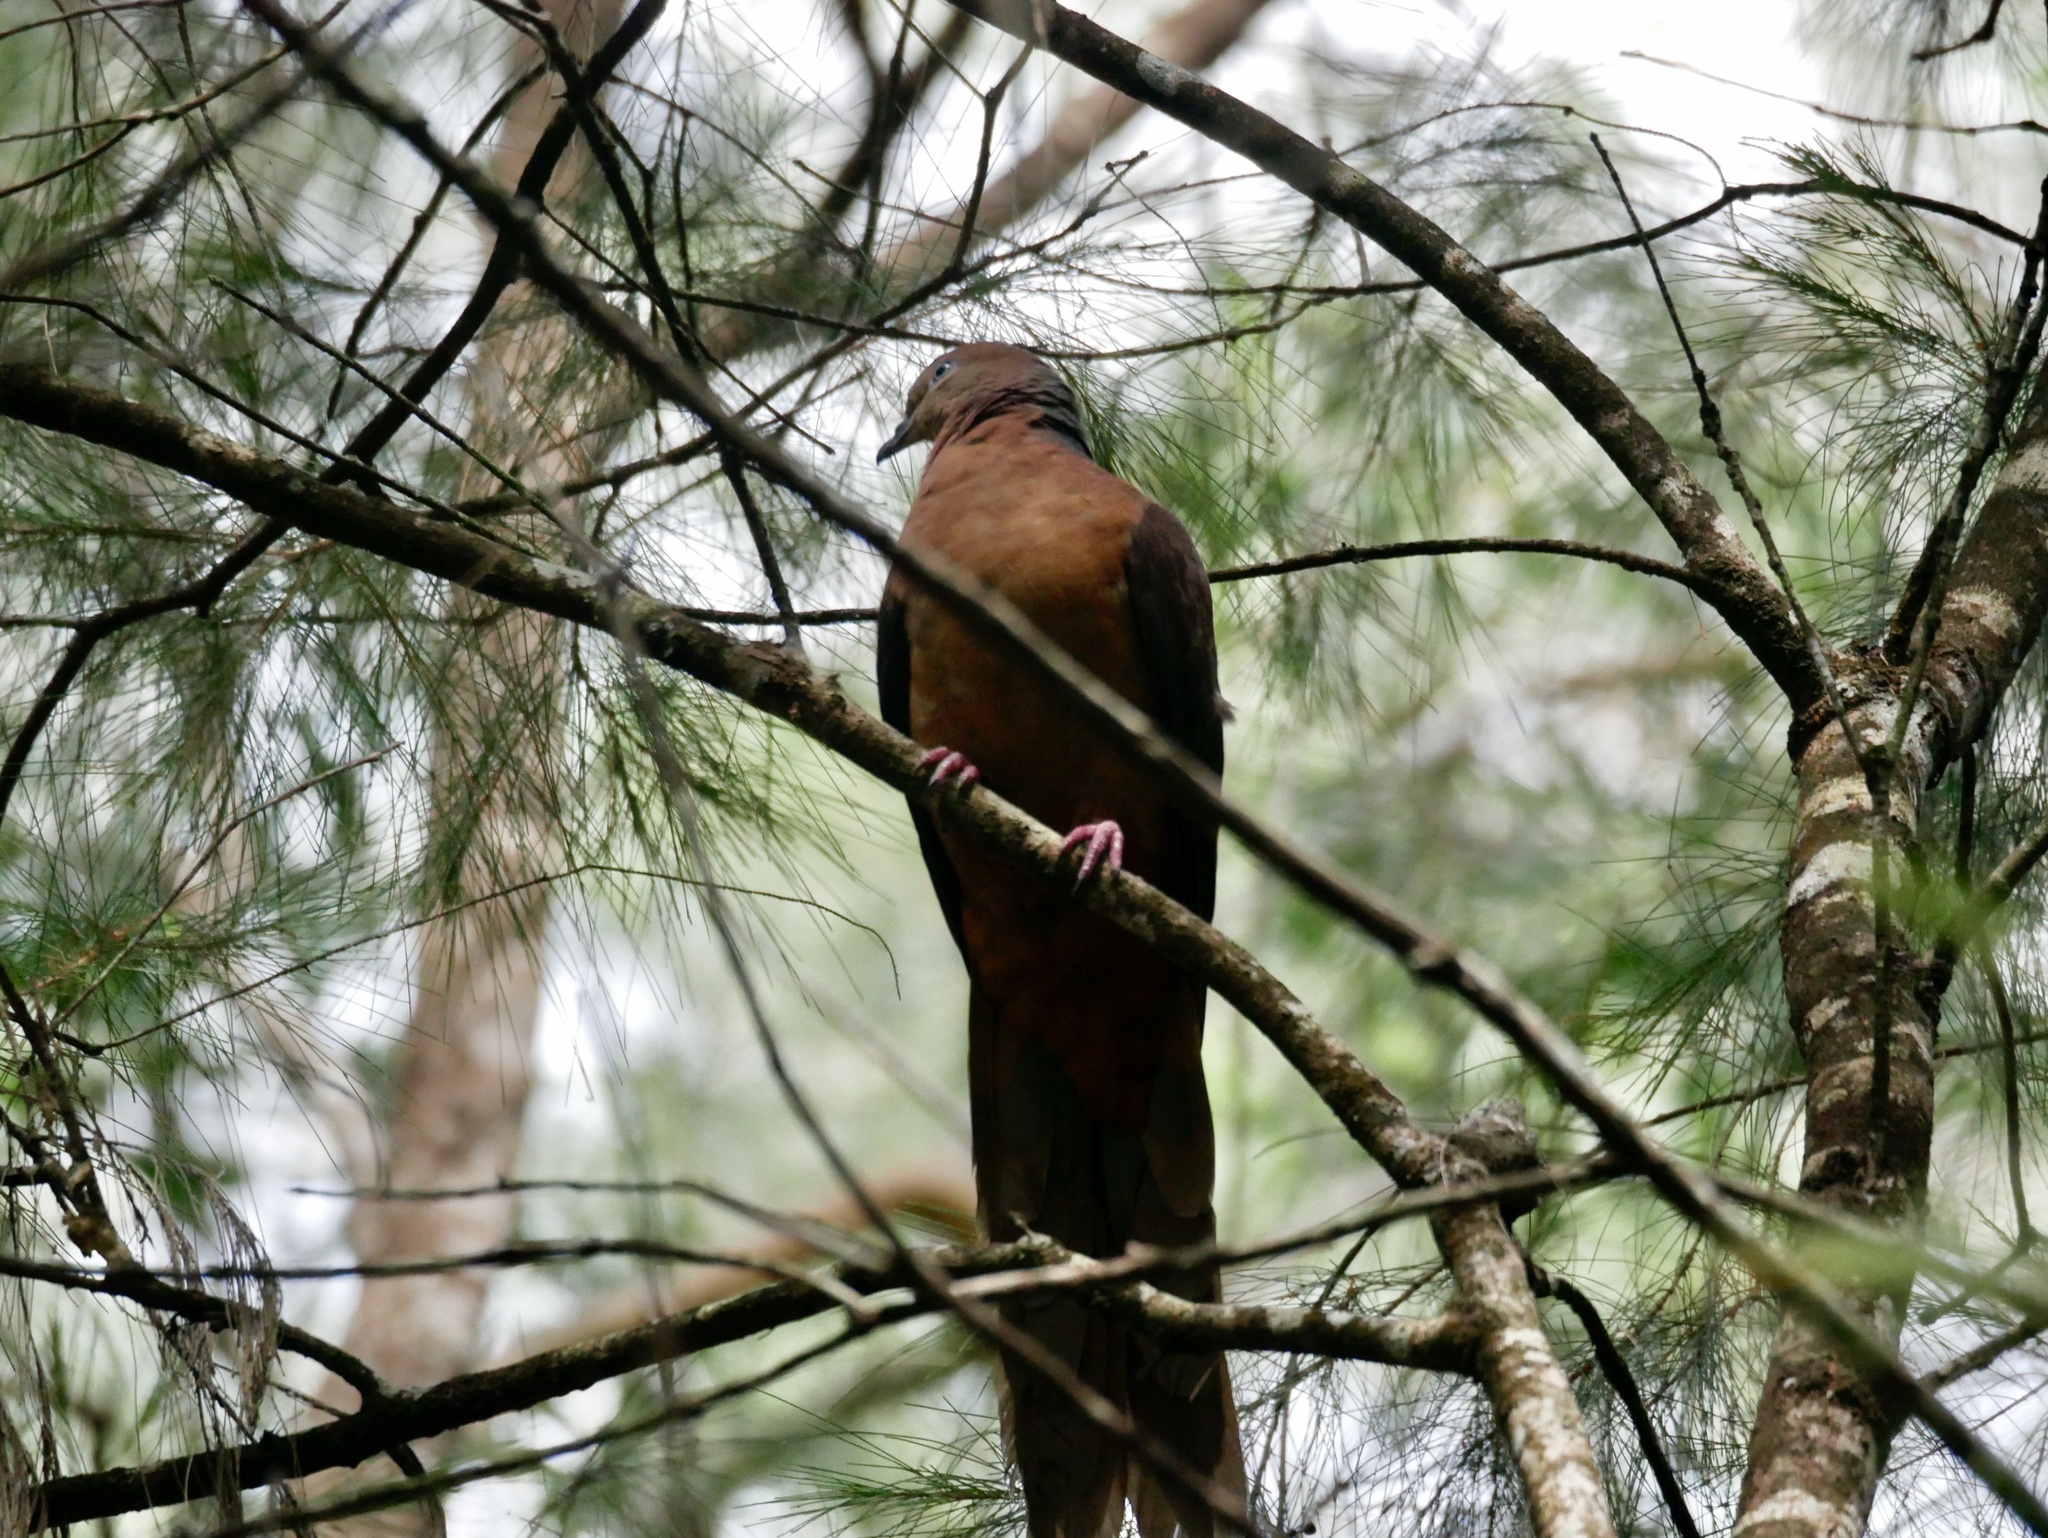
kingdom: Animalia
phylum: Chordata
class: Aves
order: Columbiformes
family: Columbidae
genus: Macropygia
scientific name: Macropygia phasianella
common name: Brown cuckoo-dove
